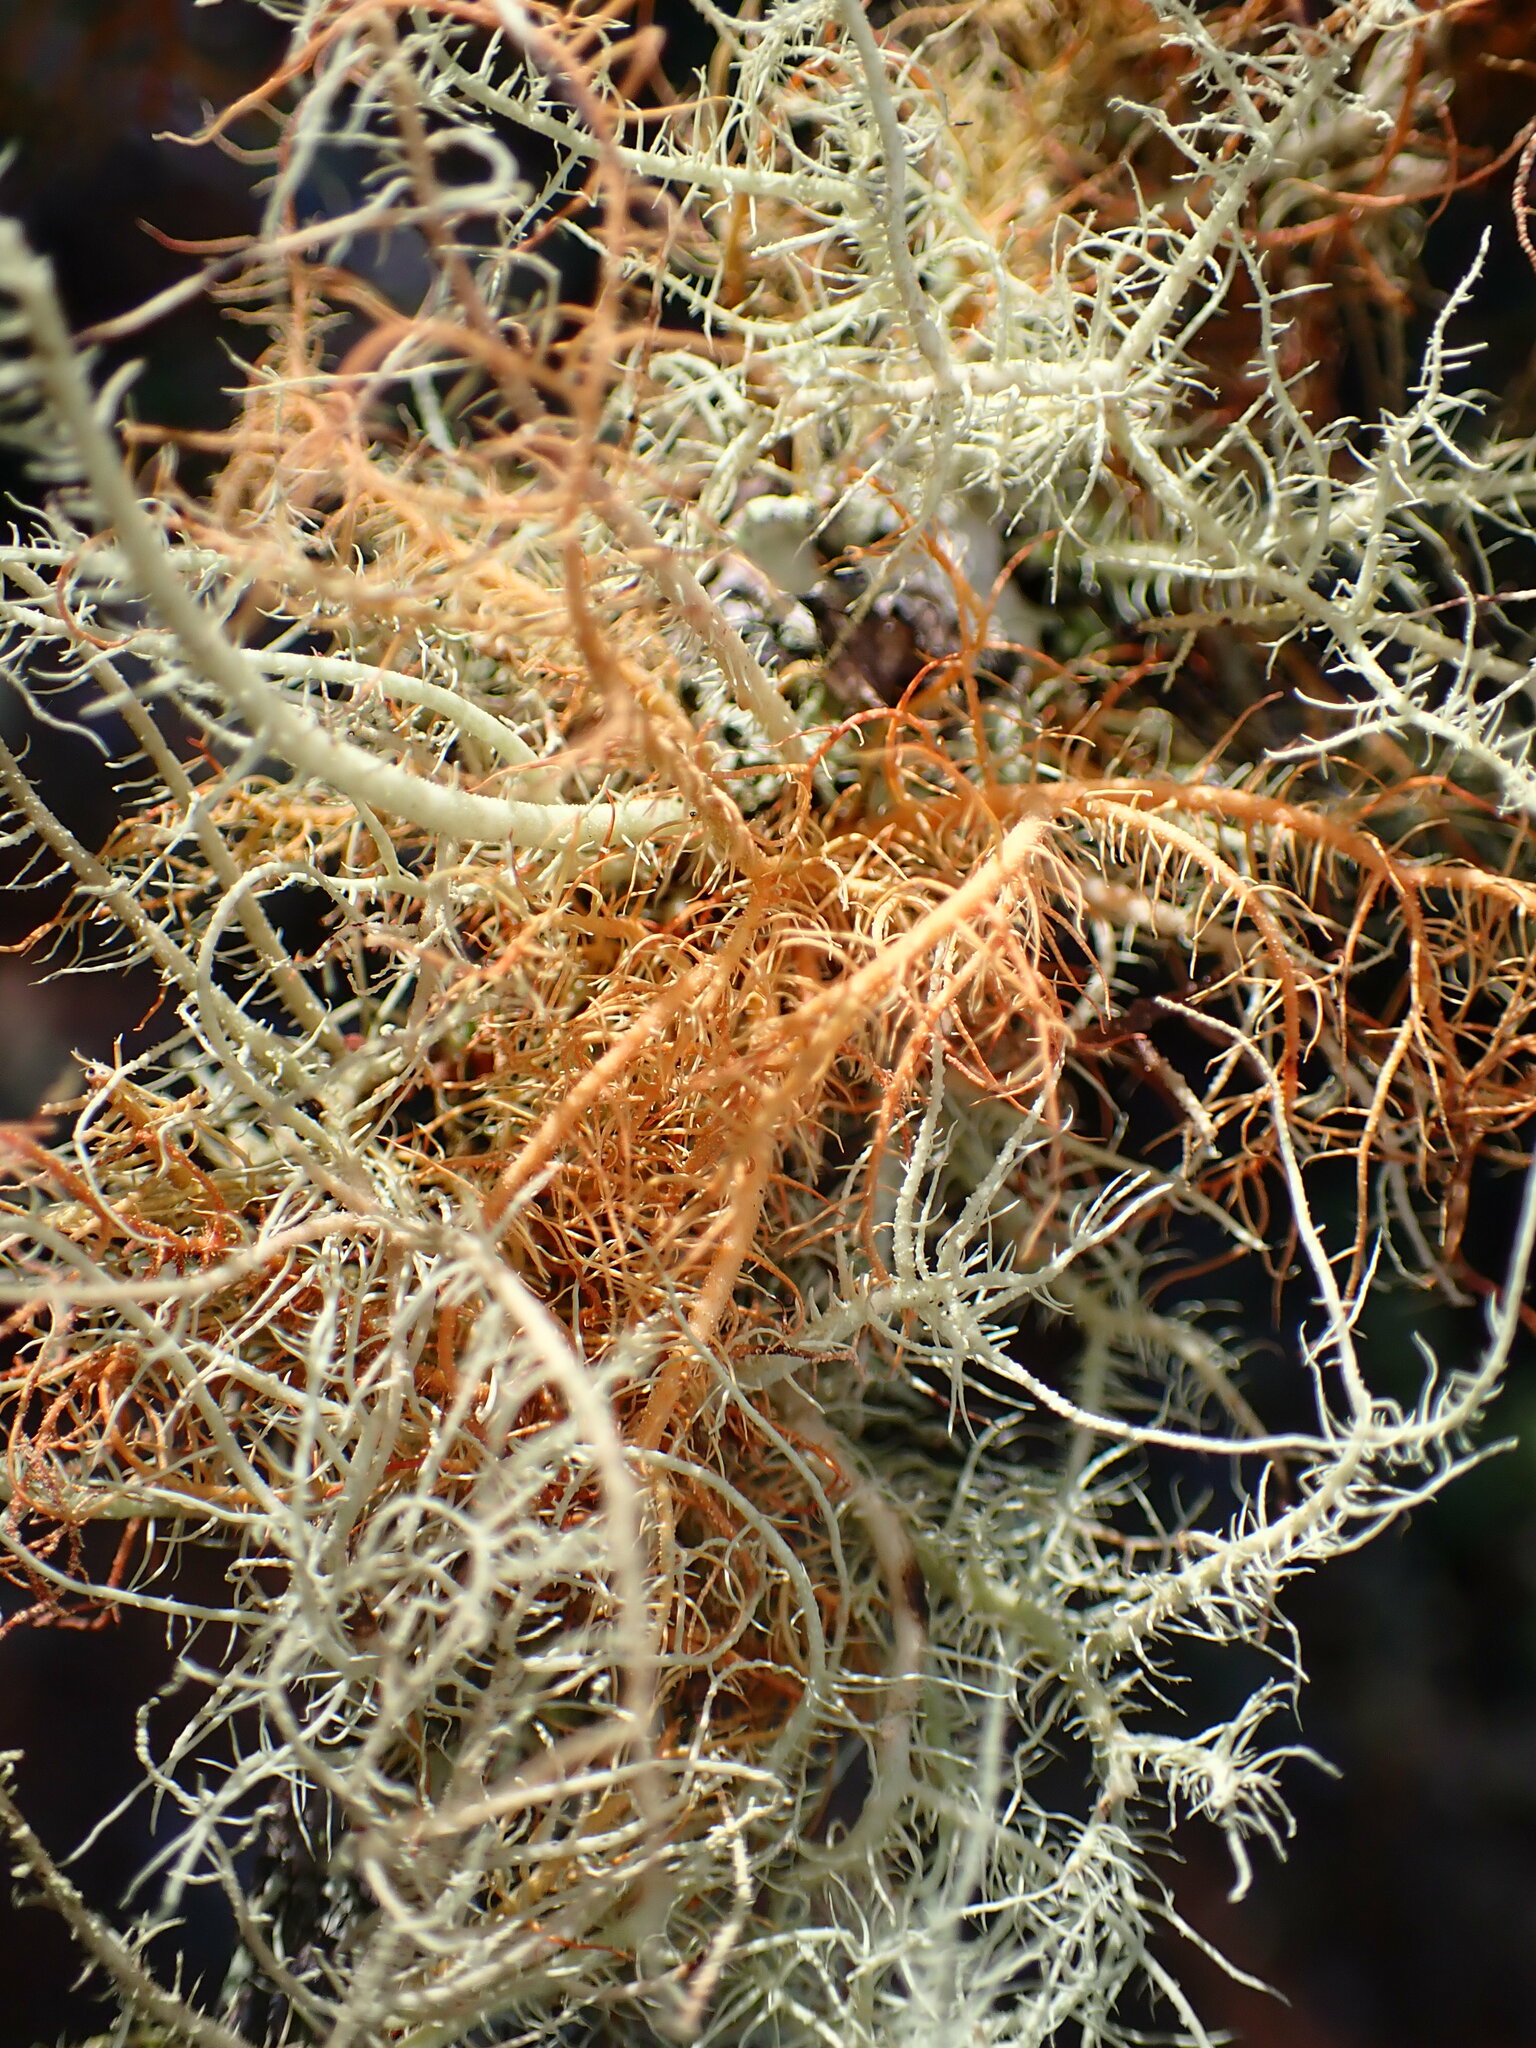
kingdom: Fungi
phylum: Ascomycota
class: Lecanoromycetes
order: Lecanorales
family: Parmeliaceae
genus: Usnea
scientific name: Usnea rubicunda
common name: Red beard lichen
